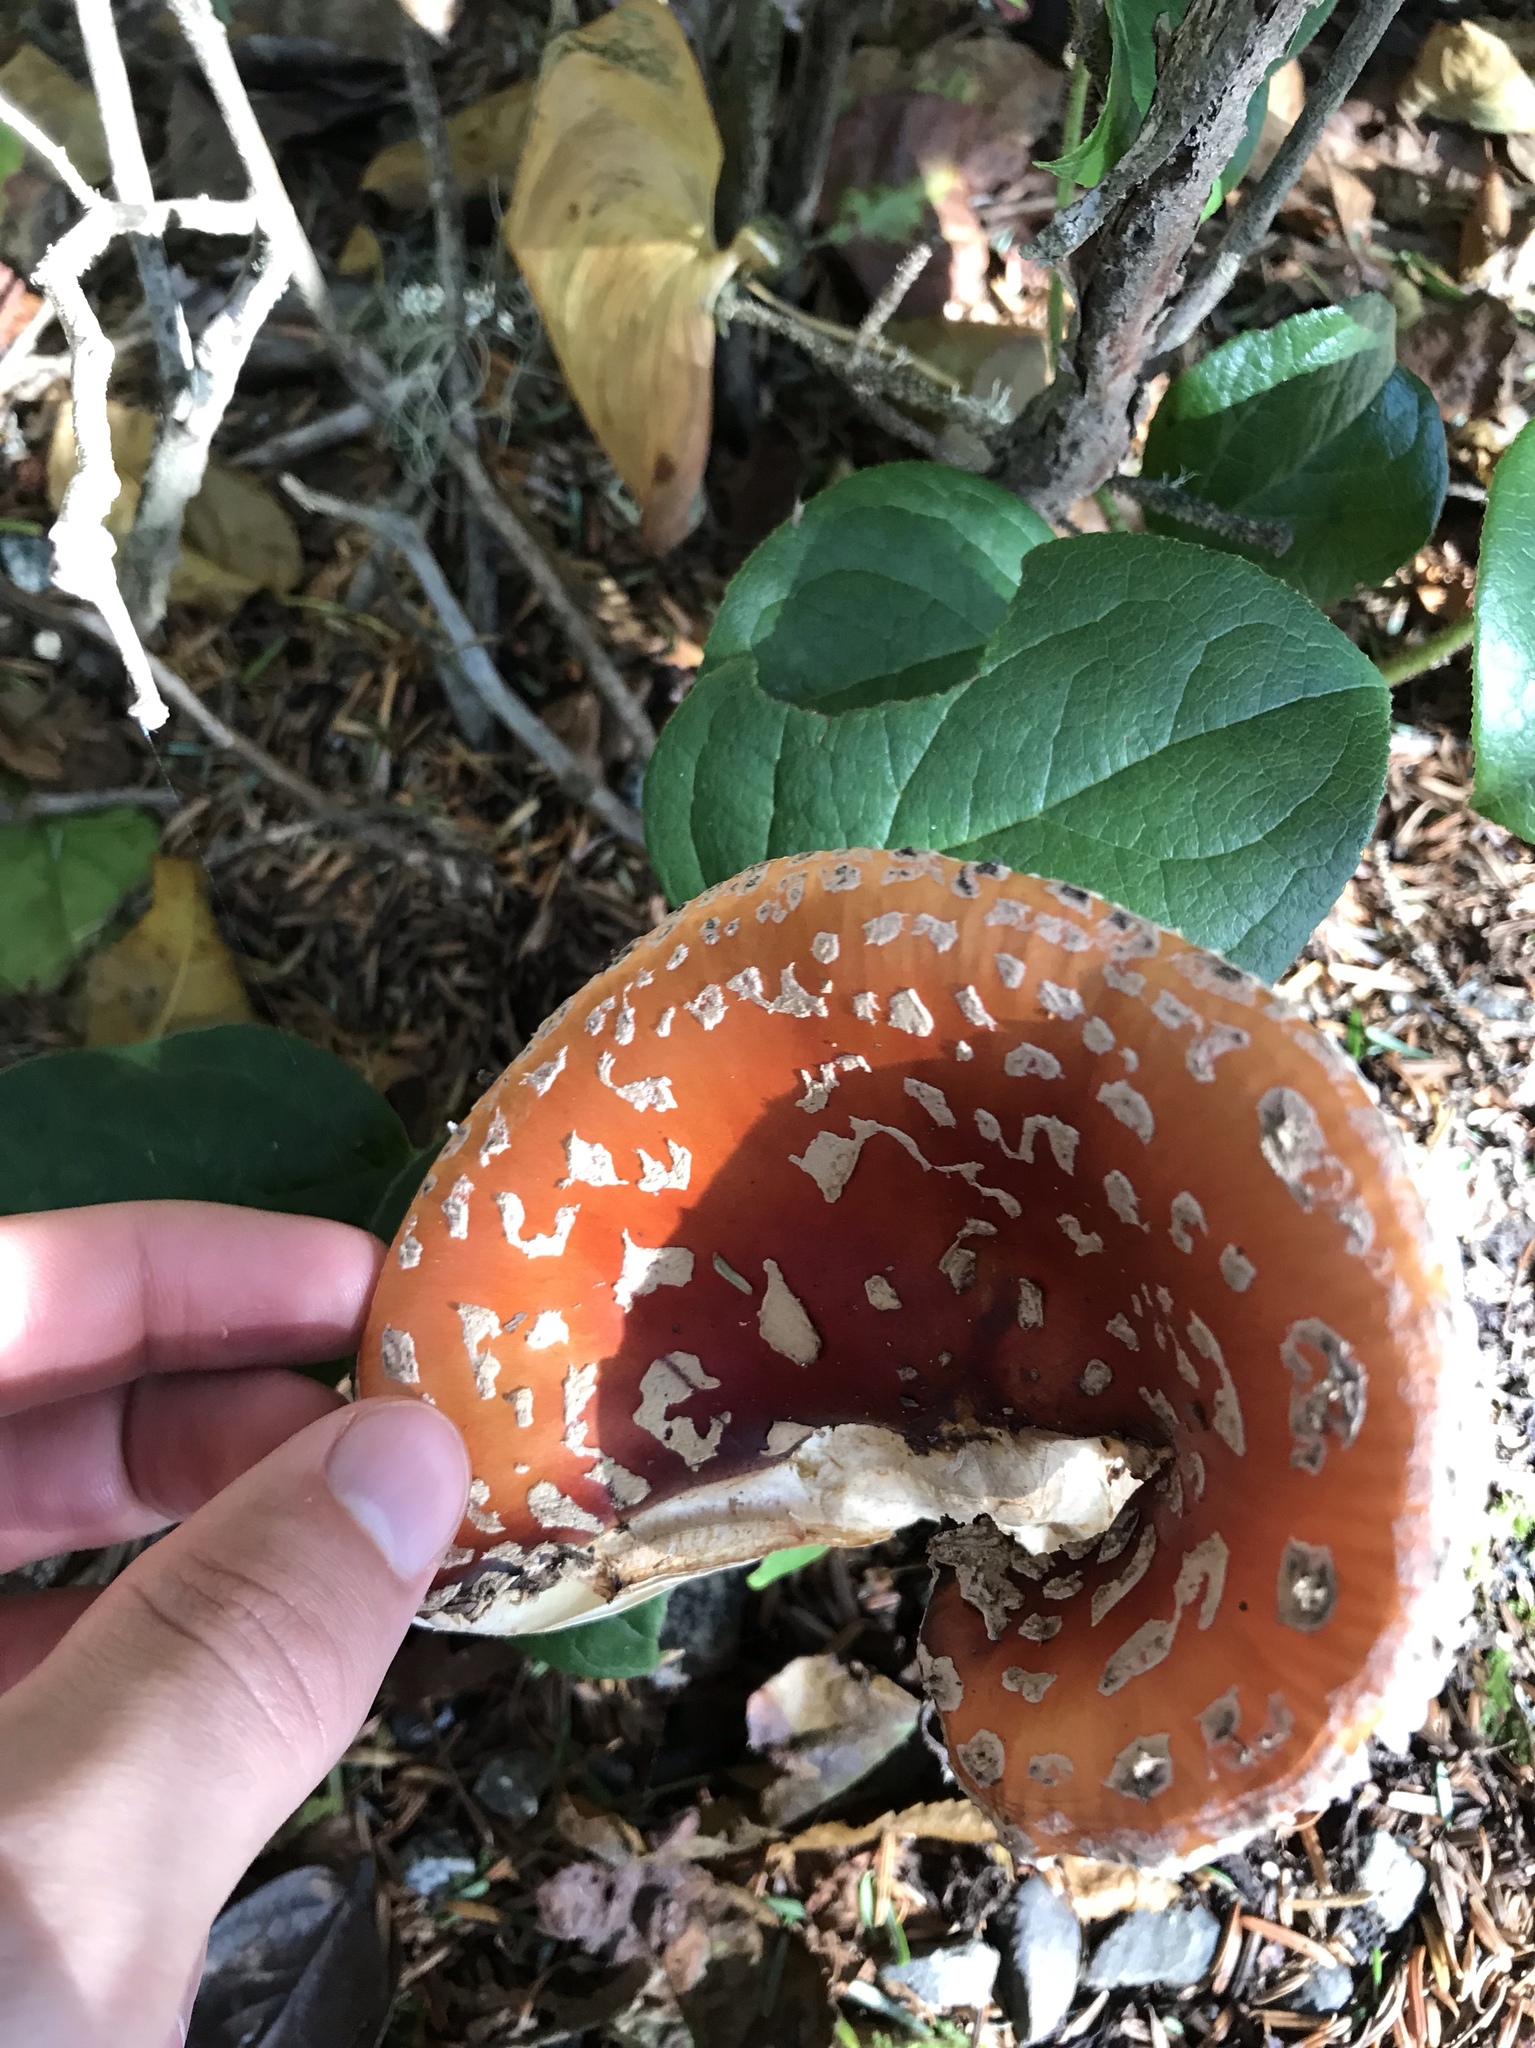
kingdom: Fungi
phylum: Basidiomycota
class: Agaricomycetes
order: Agaricales
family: Amanitaceae
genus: Amanita
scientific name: Amanita muscaria
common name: Fly agaric
